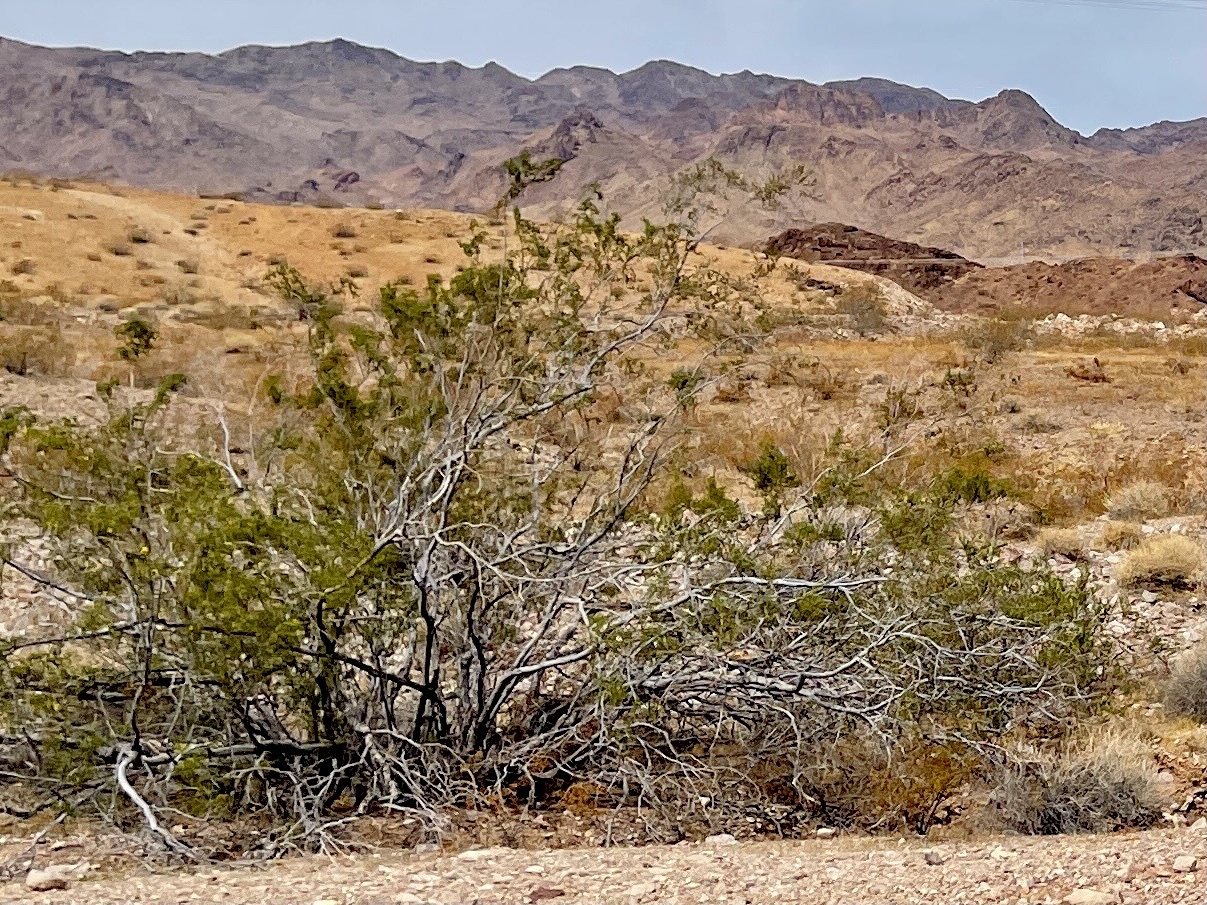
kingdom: Plantae
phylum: Tracheophyta
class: Magnoliopsida
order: Zygophyllales
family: Zygophyllaceae
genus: Larrea
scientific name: Larrea tridentata
